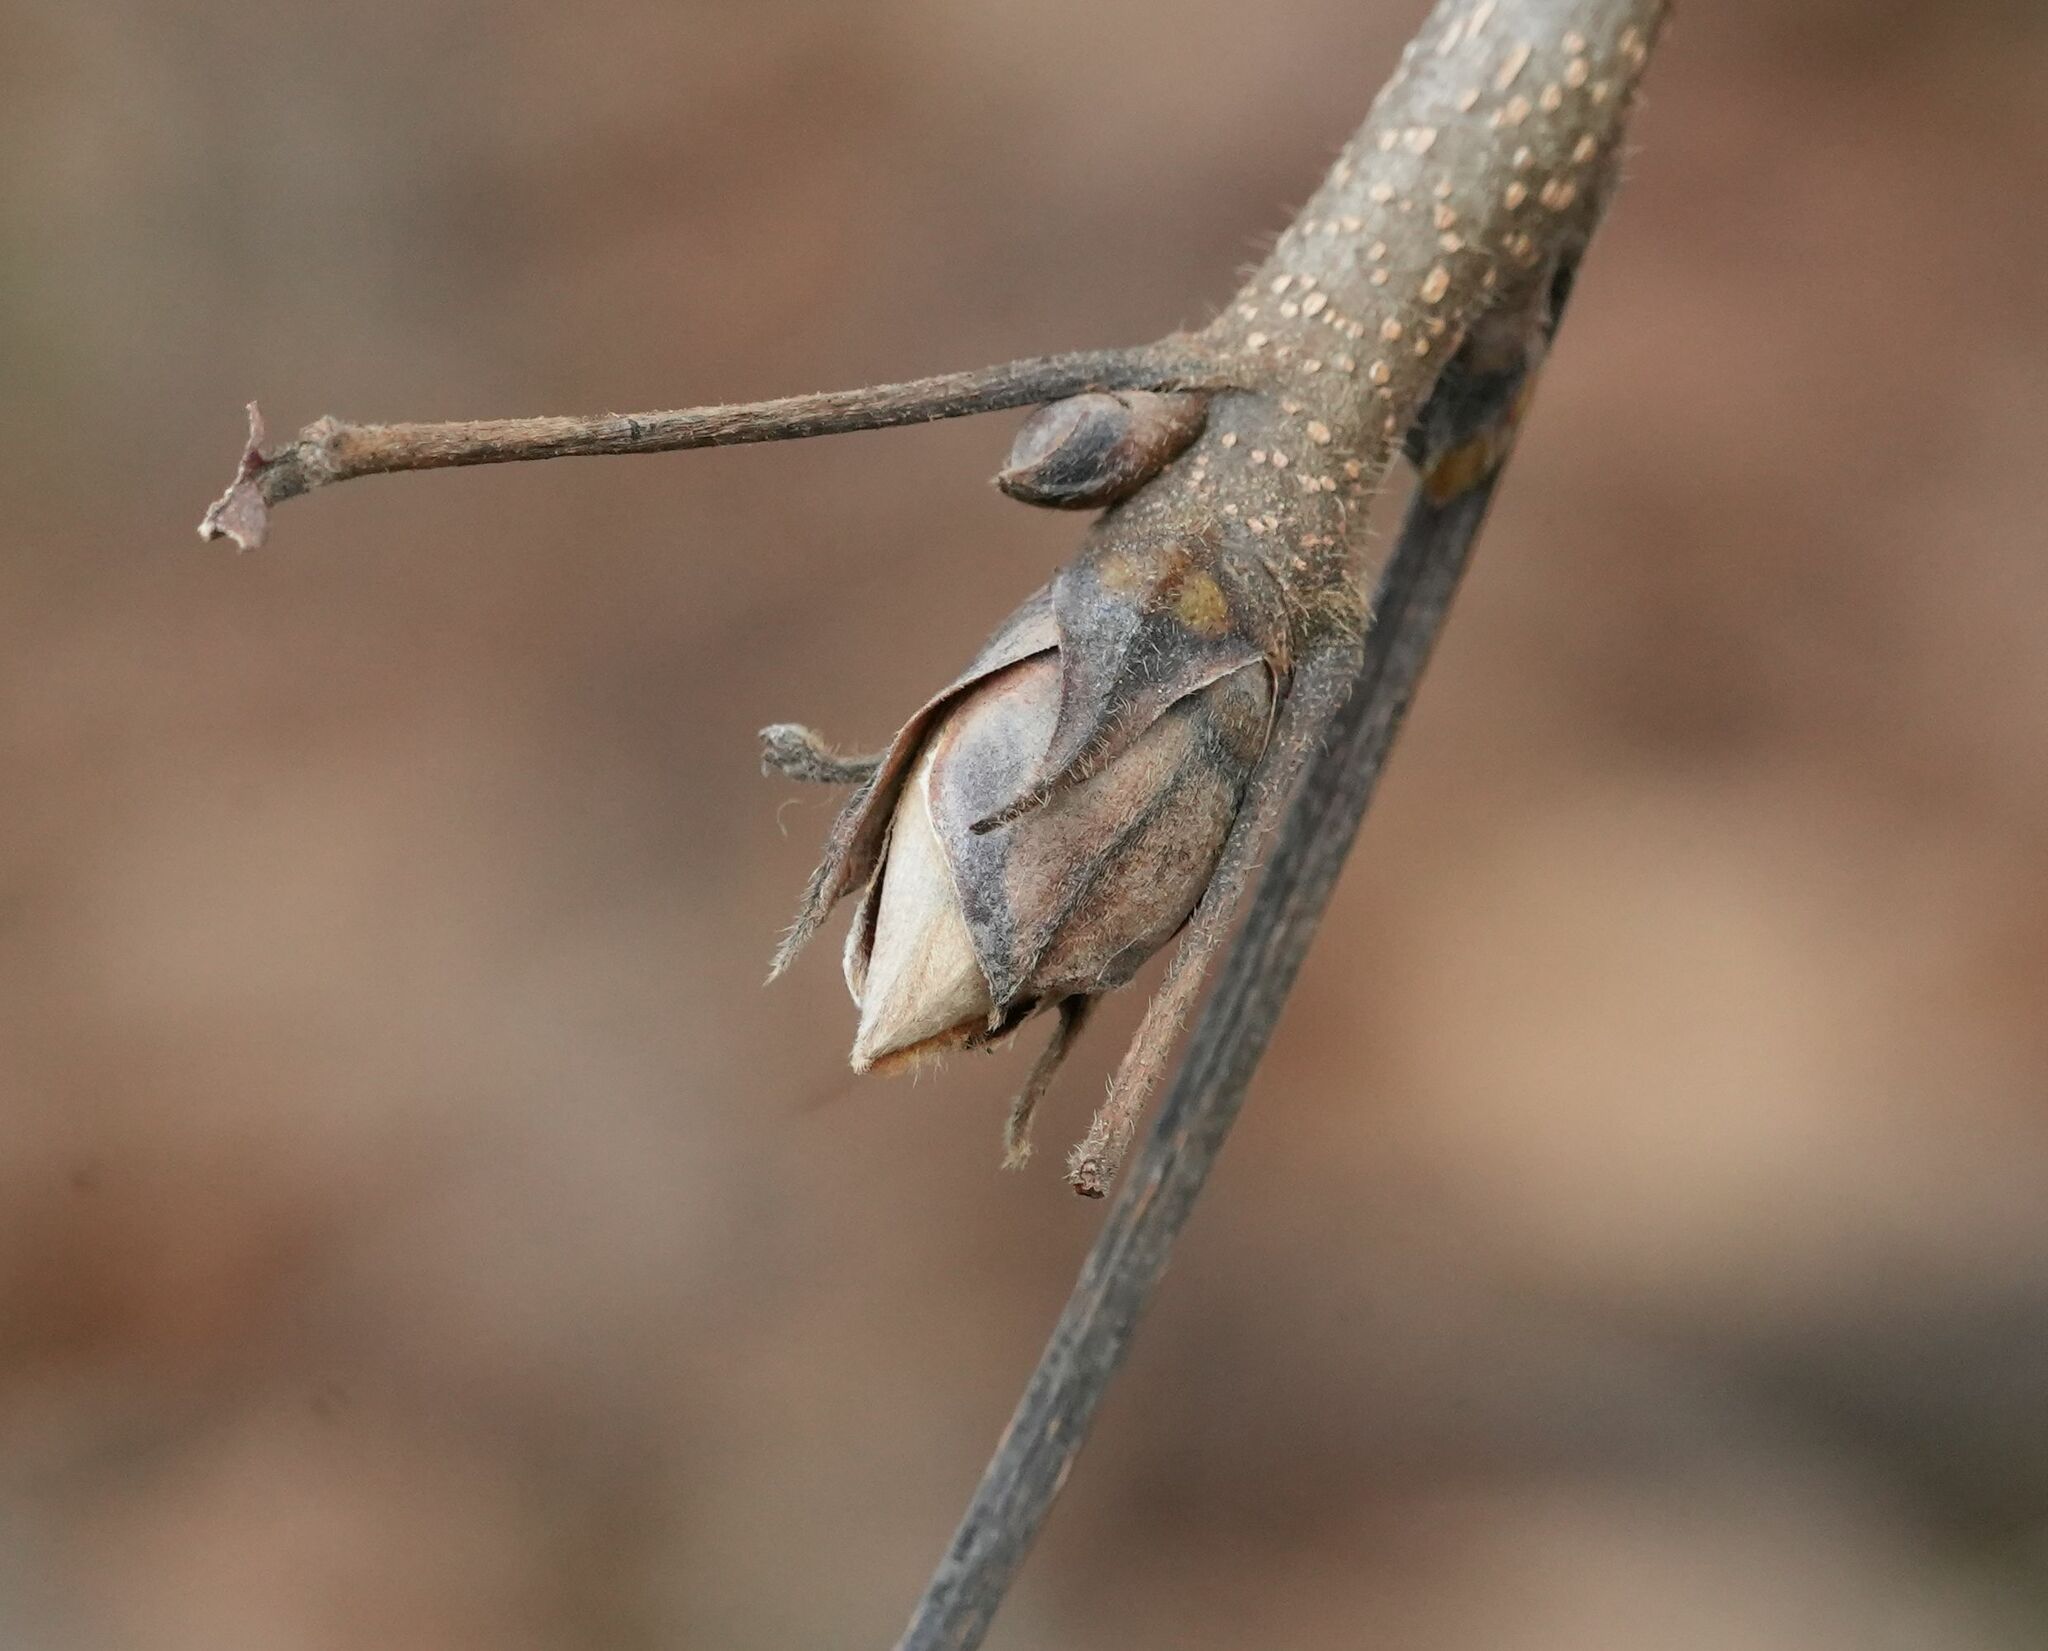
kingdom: Plantae
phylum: Tracheophyta
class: Magnoliopsida
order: Fagales
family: Juglandaceae
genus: Carya
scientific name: Carya ovata
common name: Shagbark hickory
